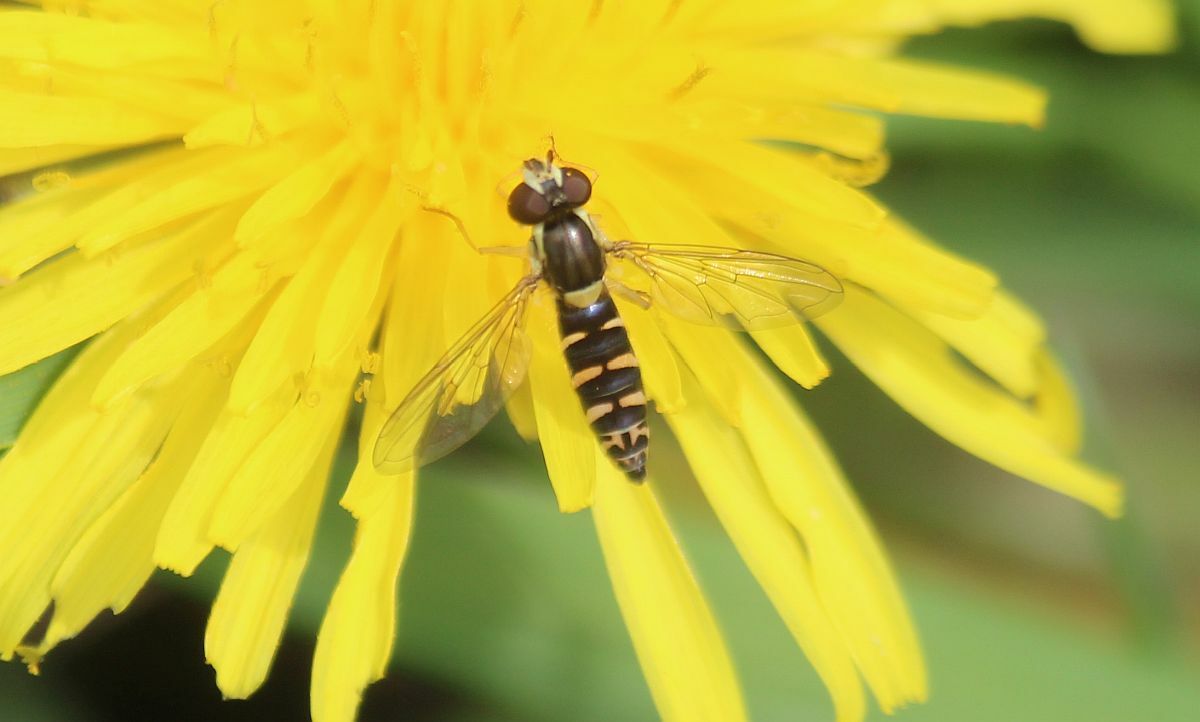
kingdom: Animalia
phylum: Arthropoda
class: Insecta
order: Diptera
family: Syrphidae
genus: Sphaerophoria
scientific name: Sphaerophoria
